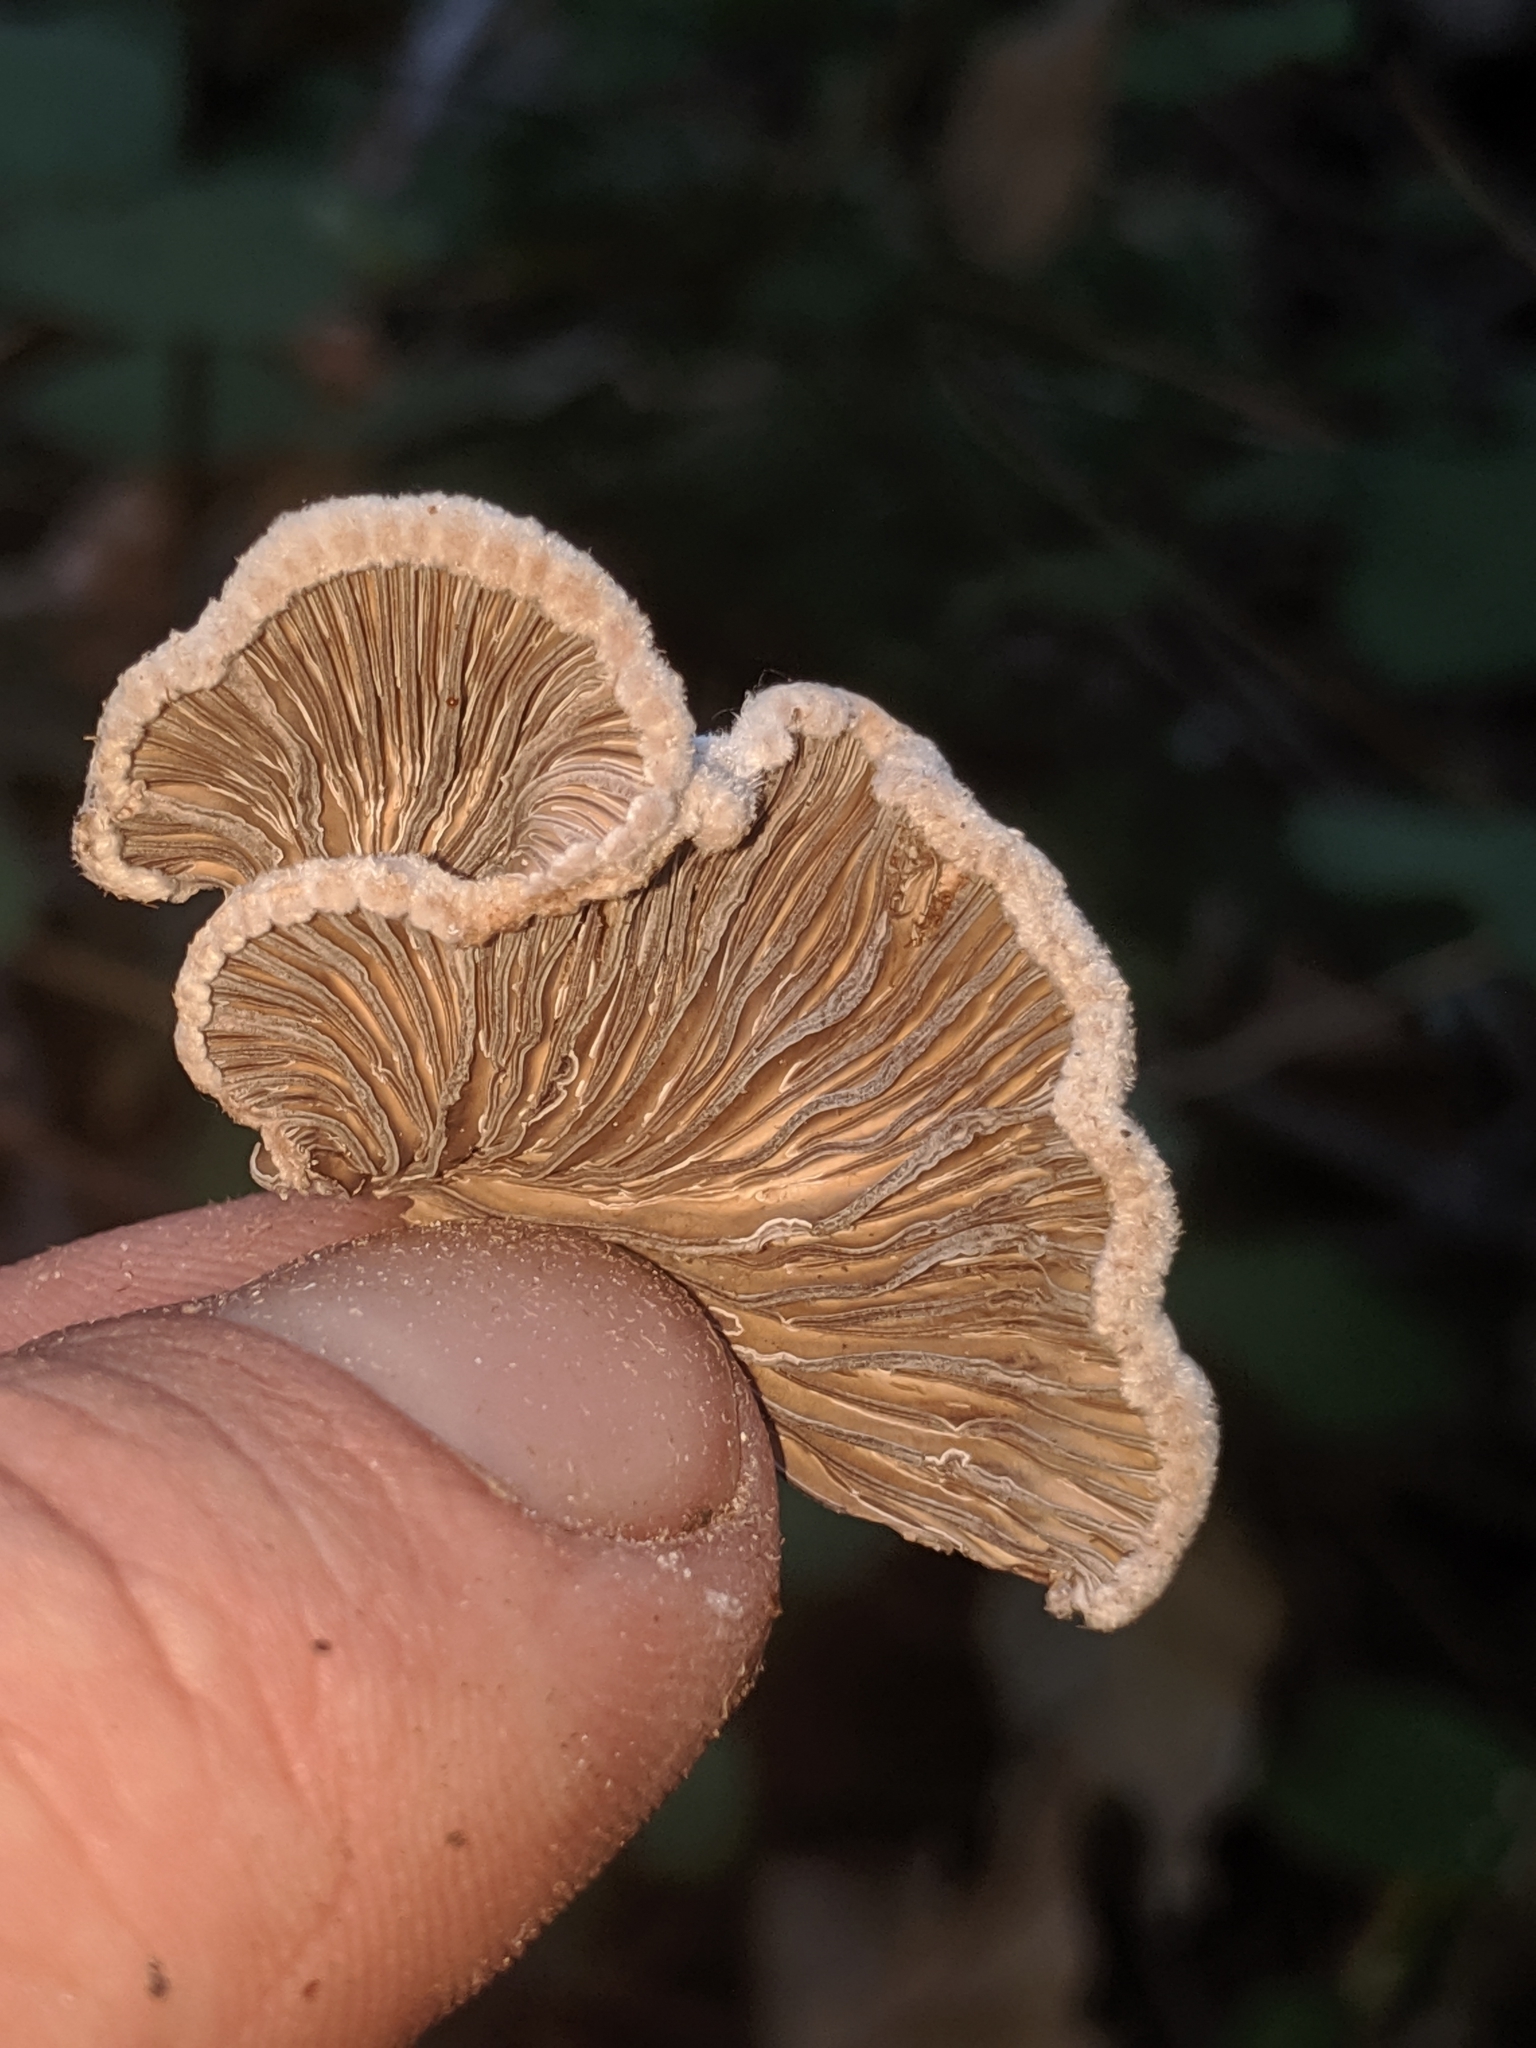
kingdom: Fungi
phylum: Basidiomycota
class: Agaricomycetes
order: Agaricales
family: Schizophyllaceae
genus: Schizophyllum
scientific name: Schizophyllum commune
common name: Common porecrust
